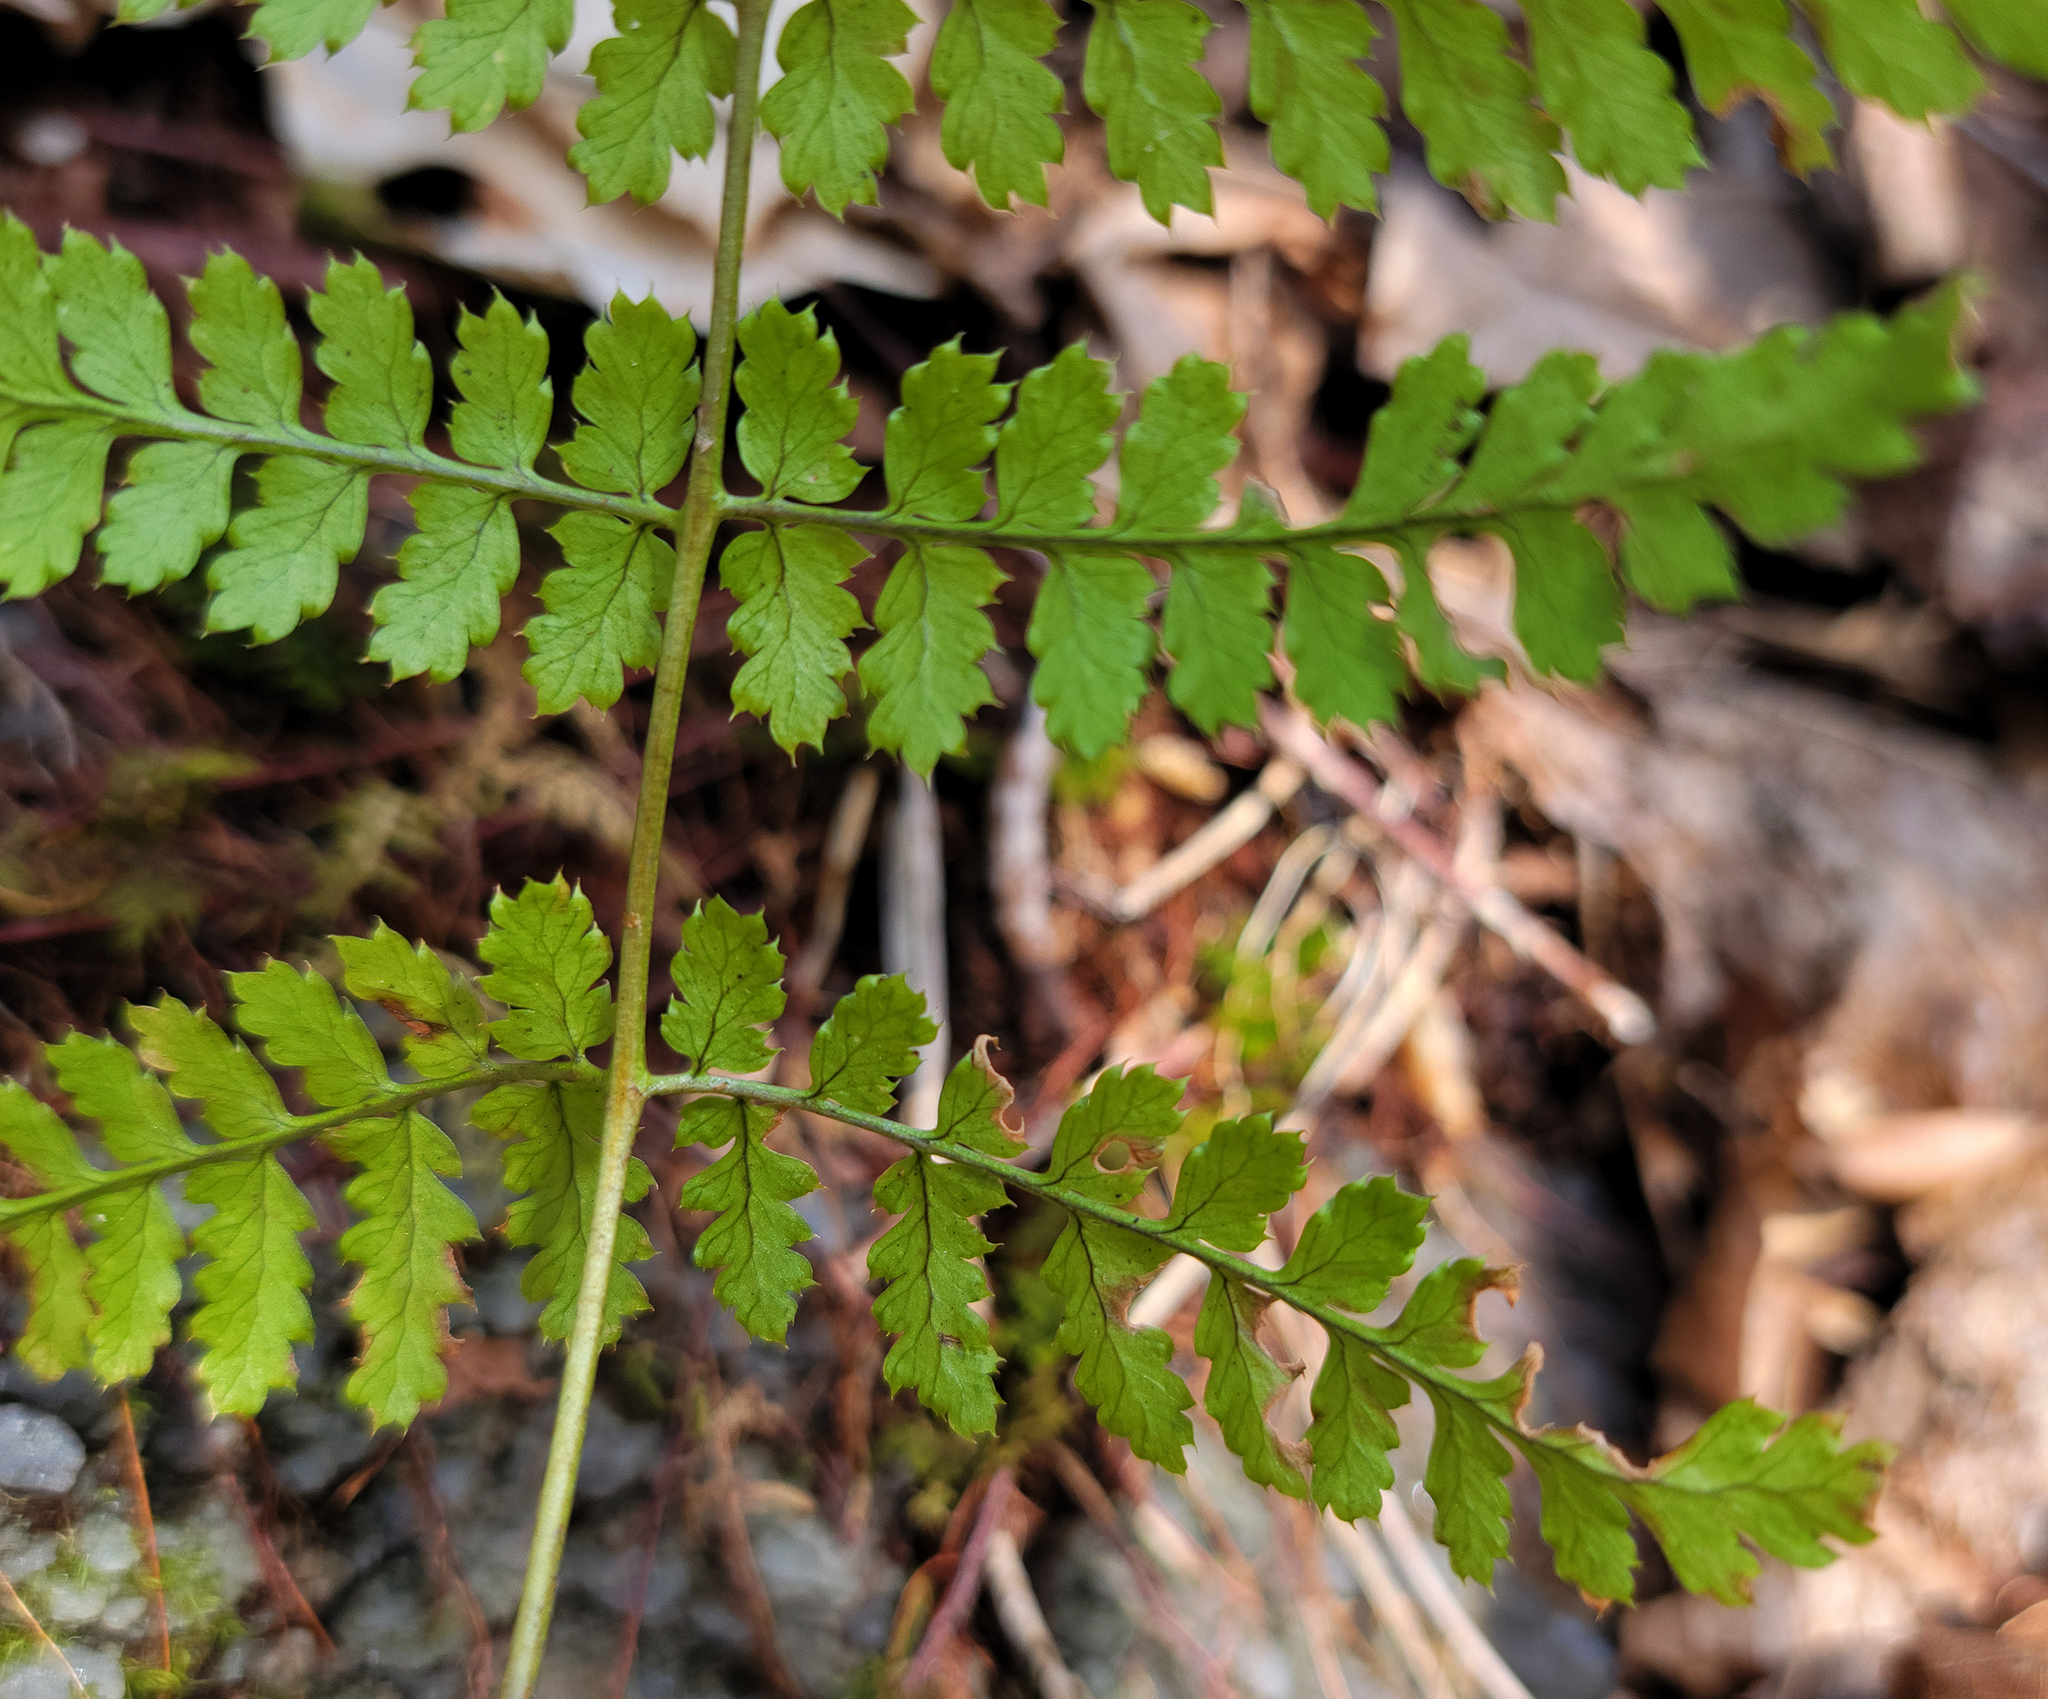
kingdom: Plantae
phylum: Tracheophyta
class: Polypodiopsida
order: Polypodiales
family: Dryopteridaceae
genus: Dryopteris
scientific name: Dryopteris intermedia
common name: Evergreen wood fern
